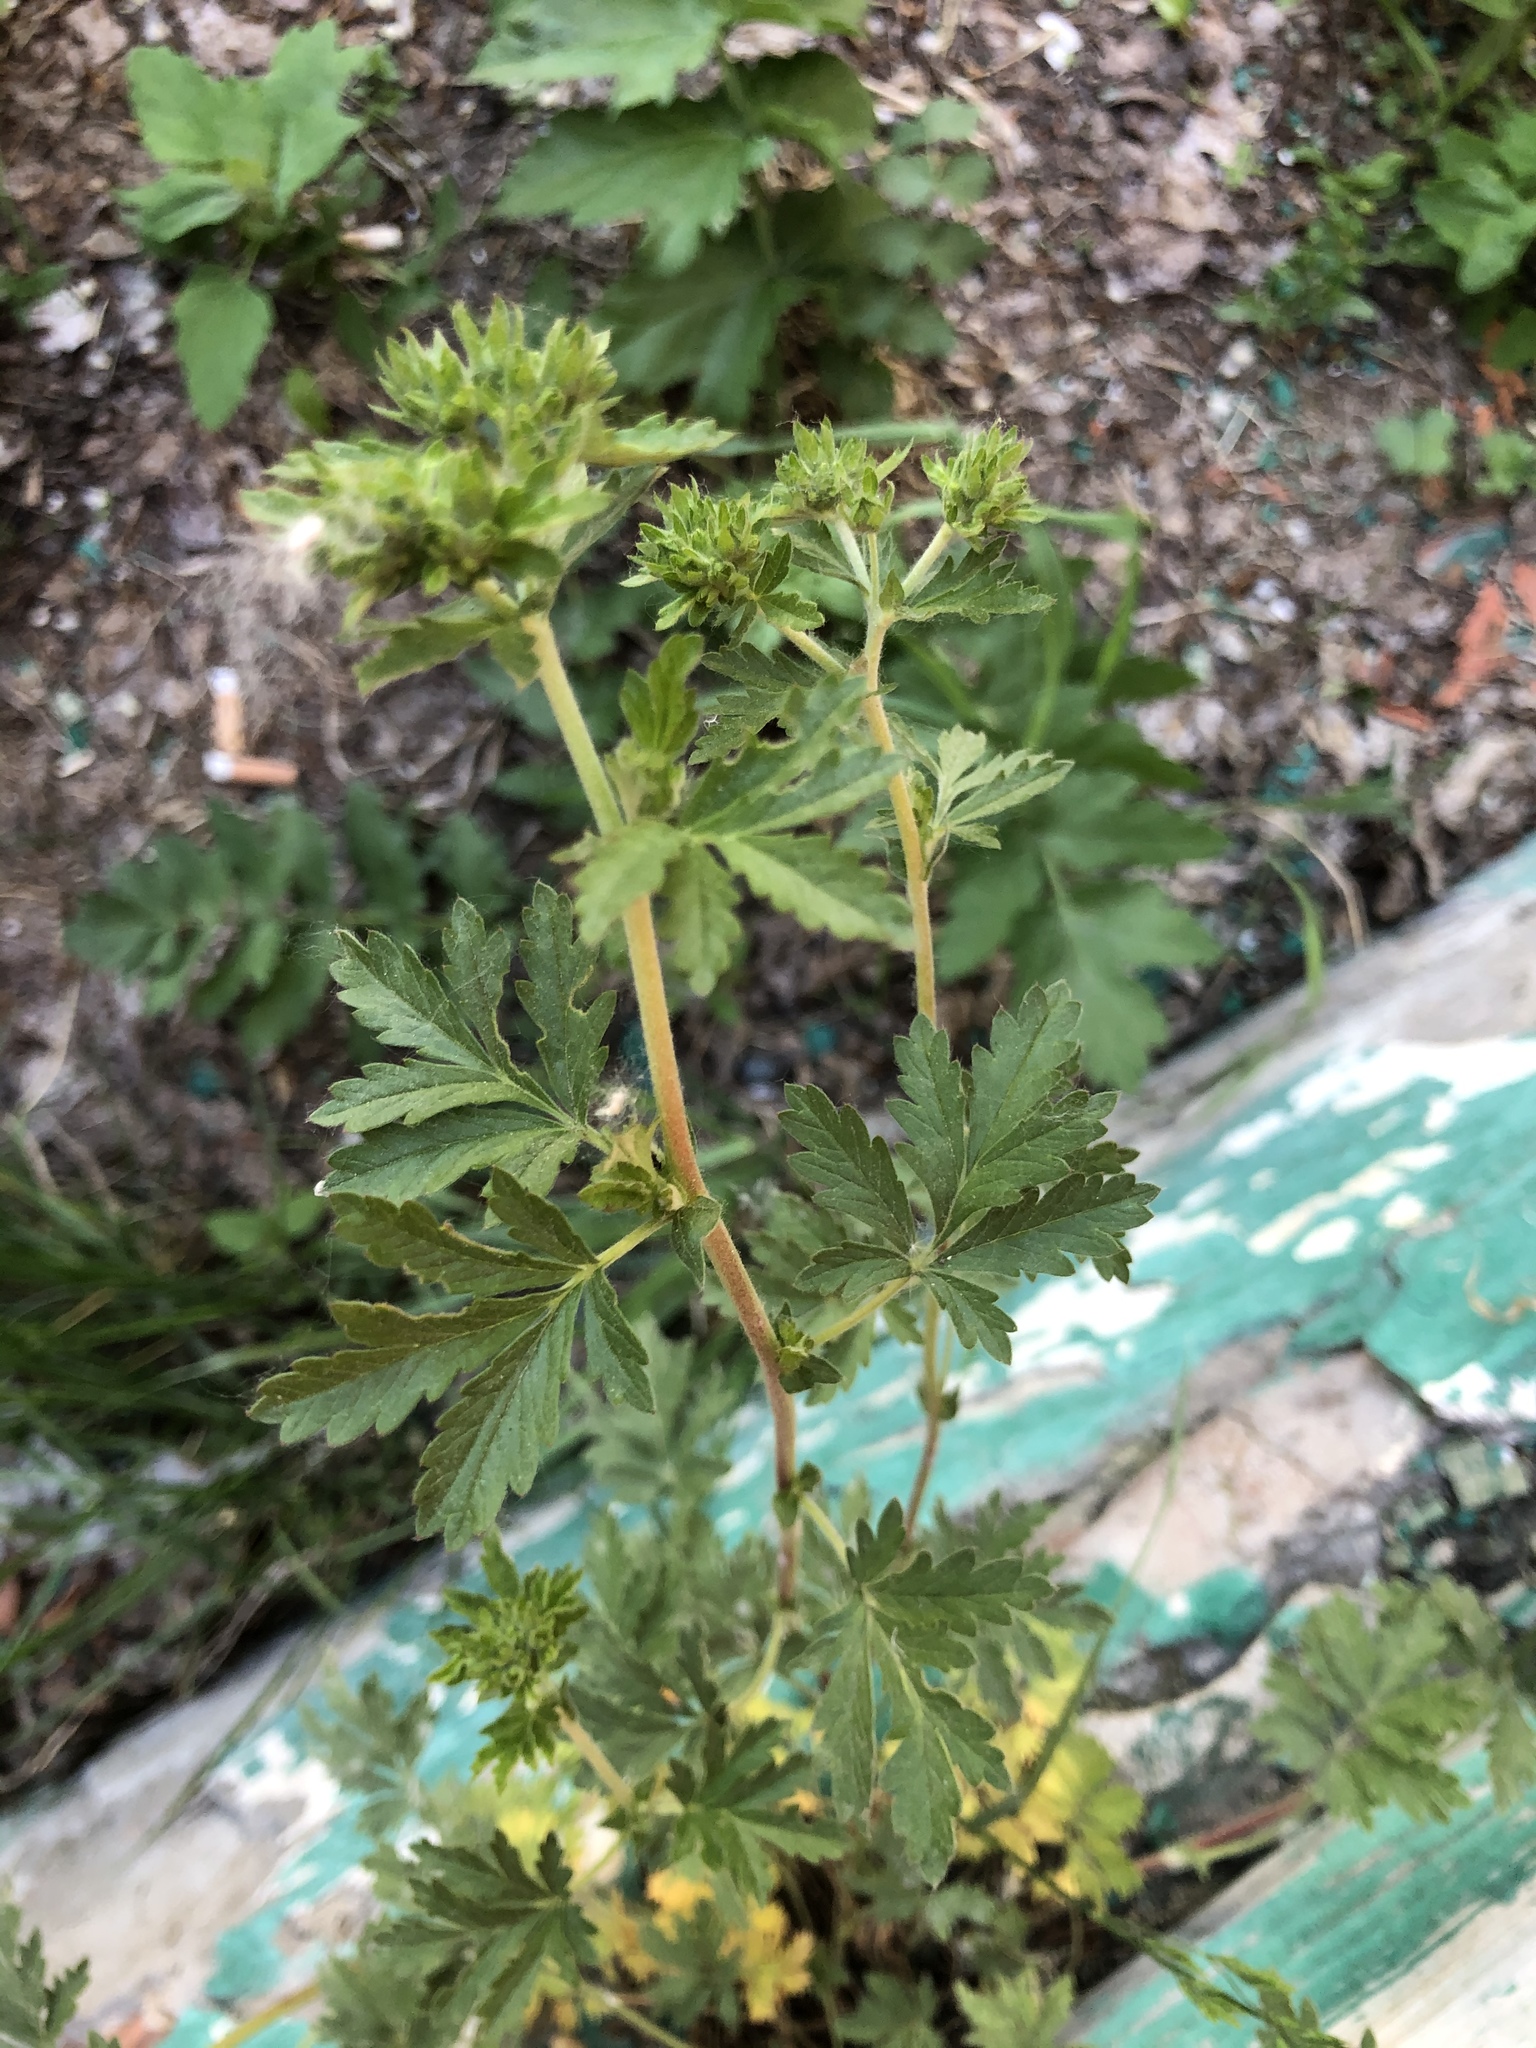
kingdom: Plantae
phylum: Tracheophyta
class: Magnoliopsida
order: Rosales
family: Rosaceae
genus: Potentilla
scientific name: Potentilla tobolensis
